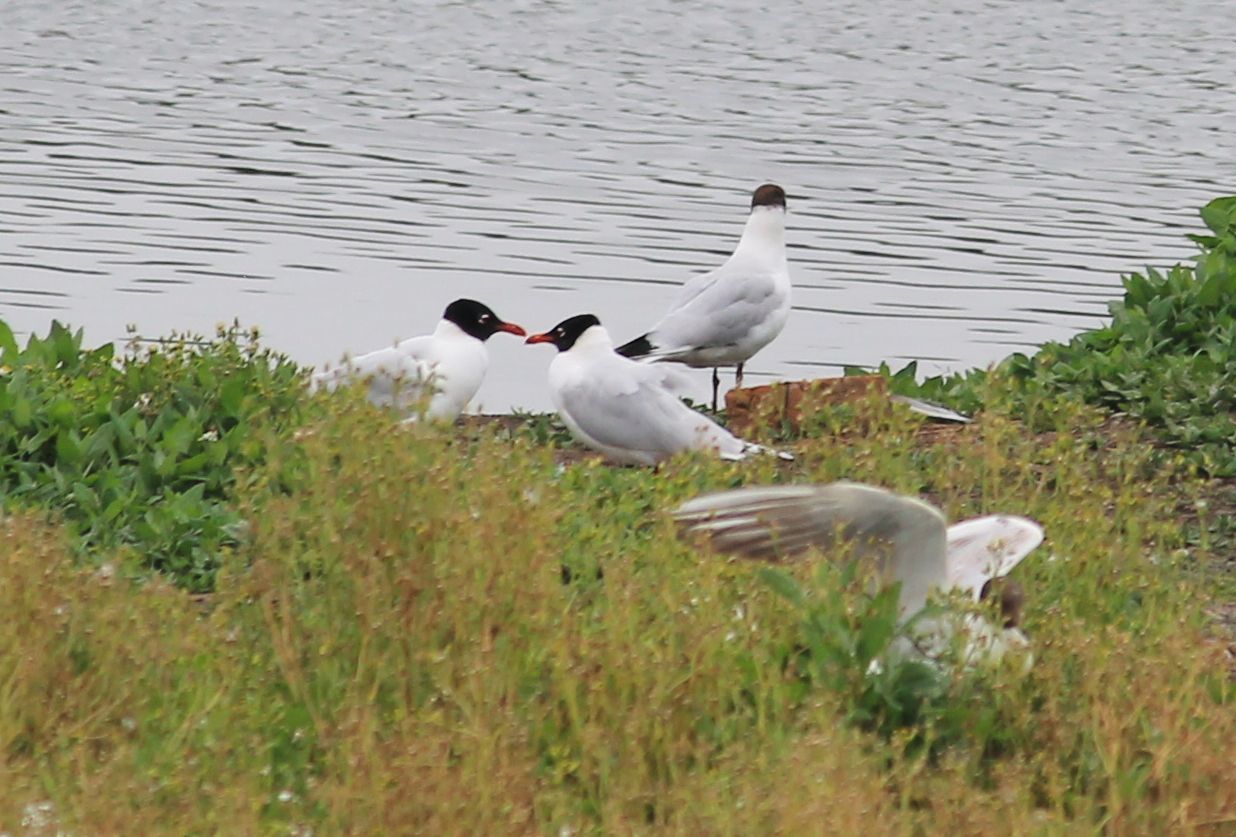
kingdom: Animalia
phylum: Chordata
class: Aves
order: Charadriiformes
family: Laridae
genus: Ichthyaetus
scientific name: Ichthyaetus melanocephalus
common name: Mediterranean gull
